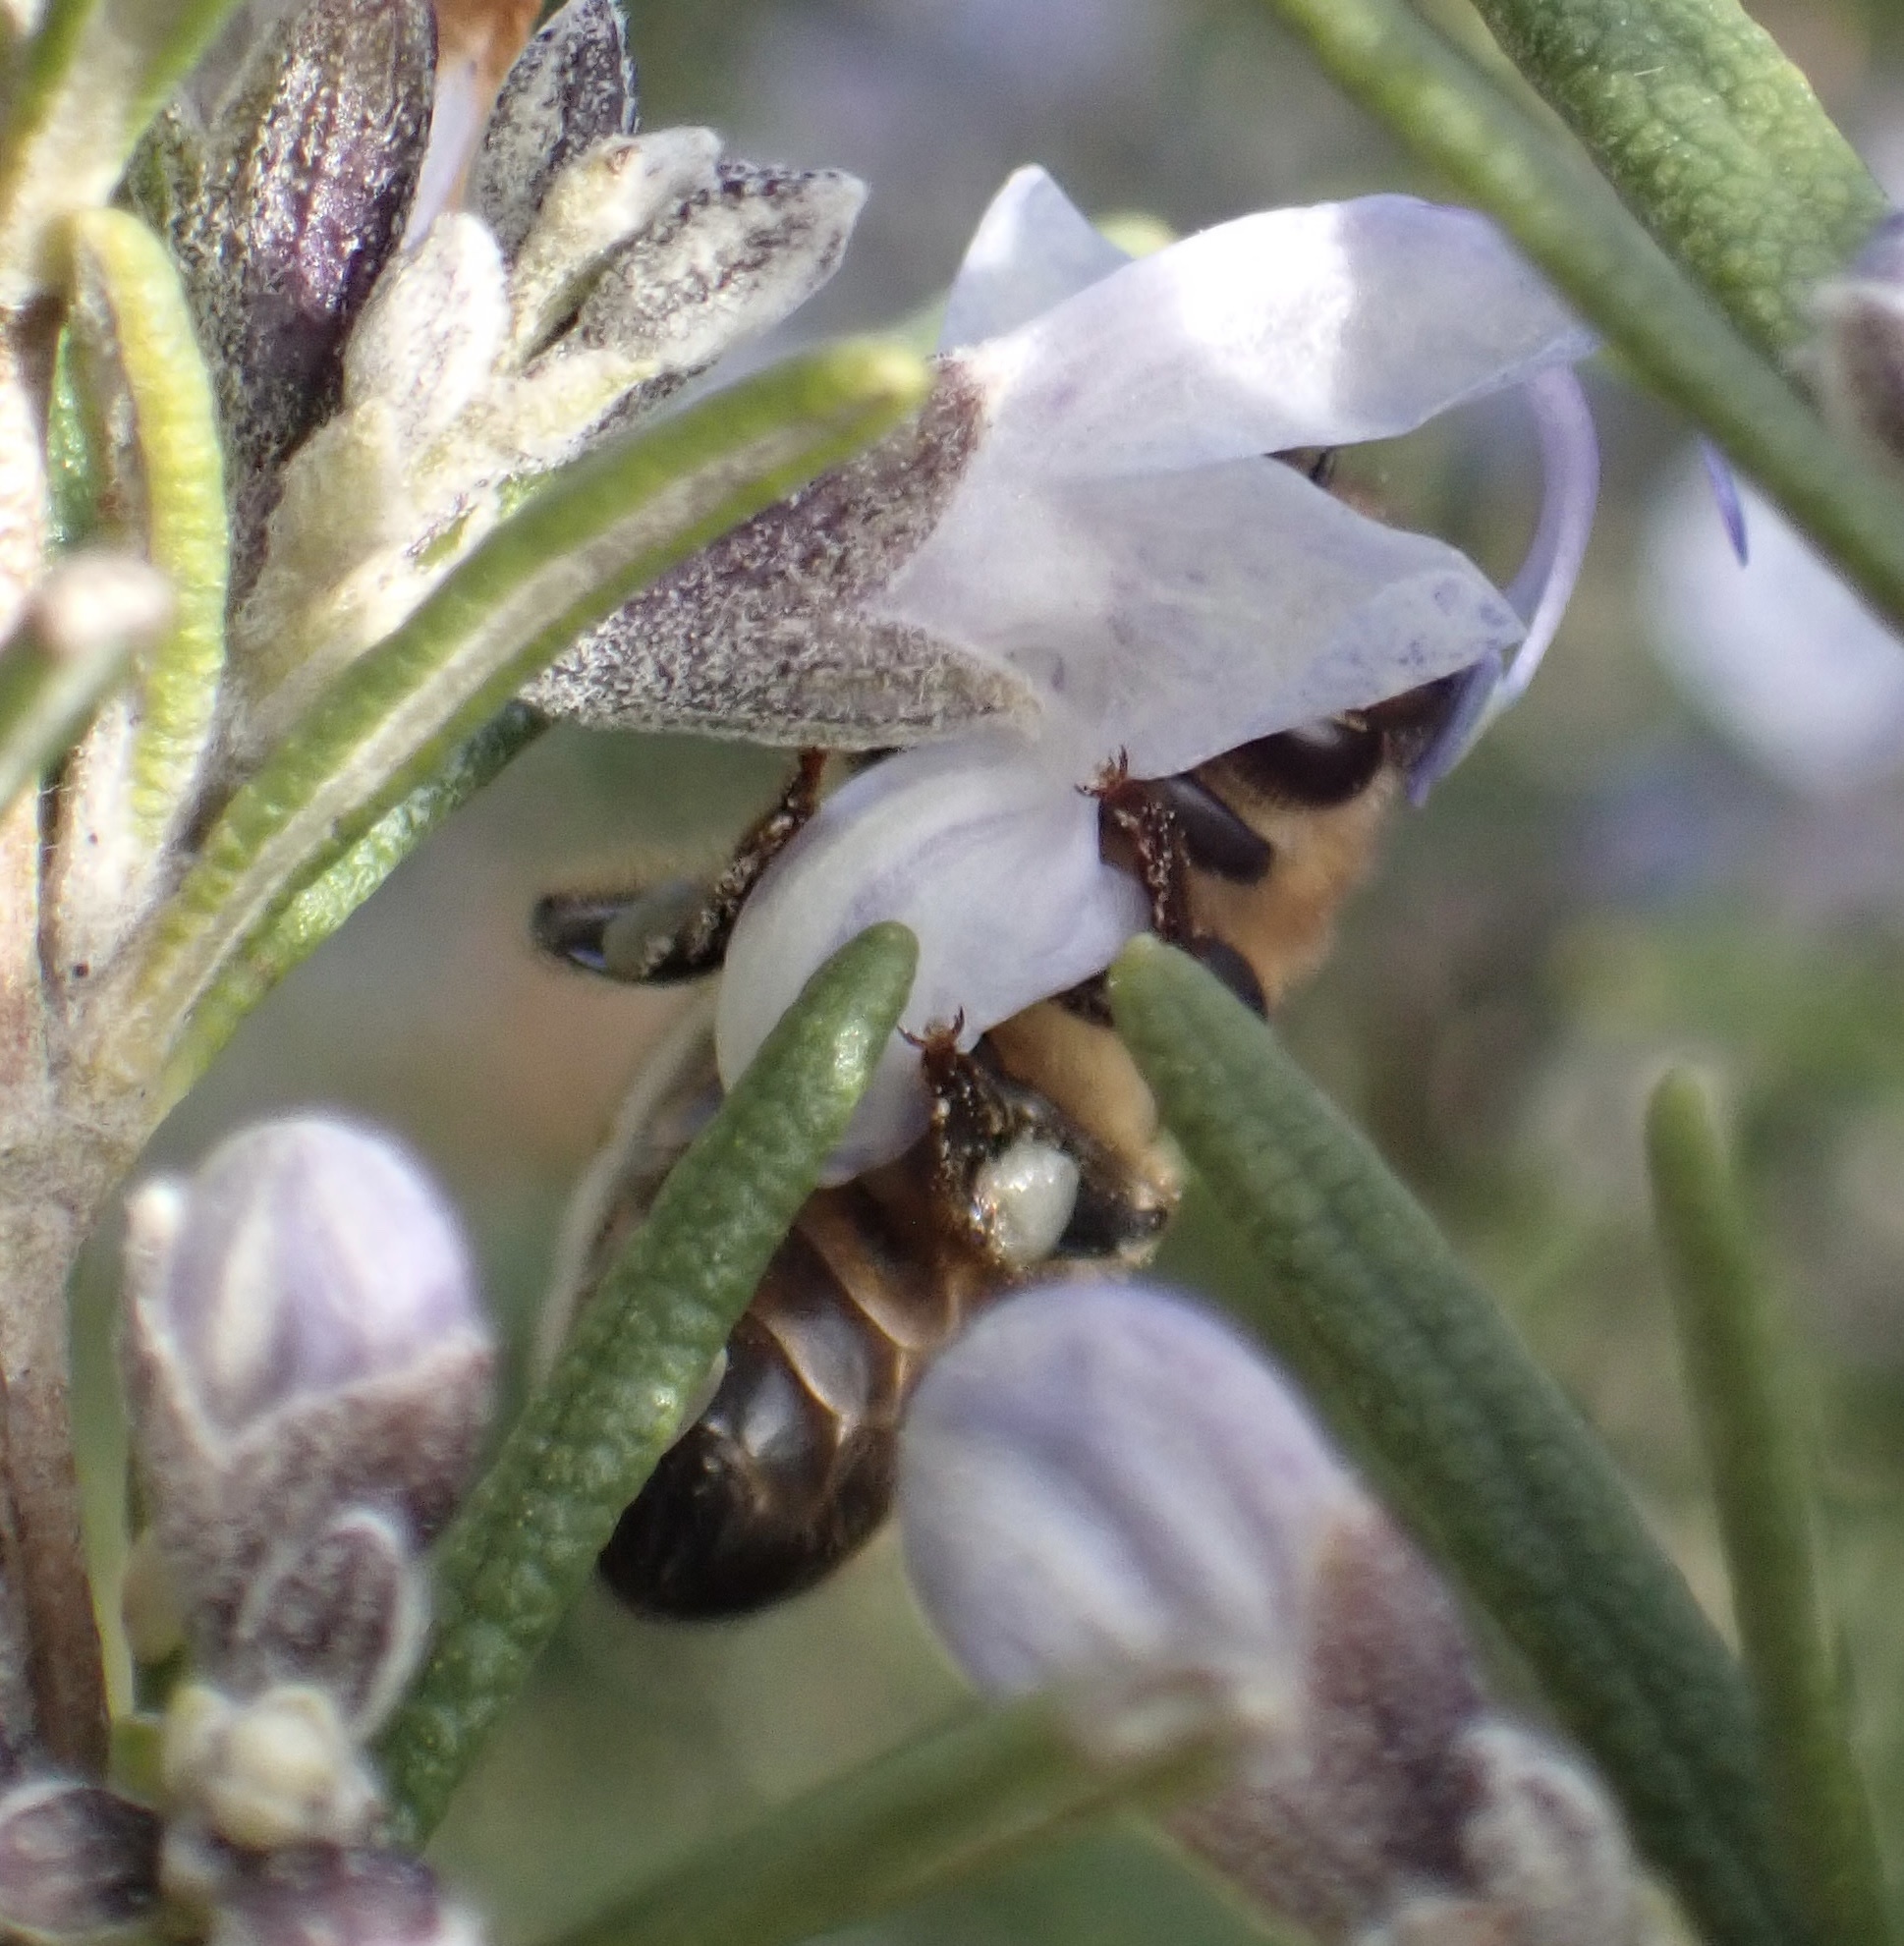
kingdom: Animalia
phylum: Arthropoda
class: Insecta
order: Hymenoptera
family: Apidae
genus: Apis
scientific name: Apis mellifera
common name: Honey bee
